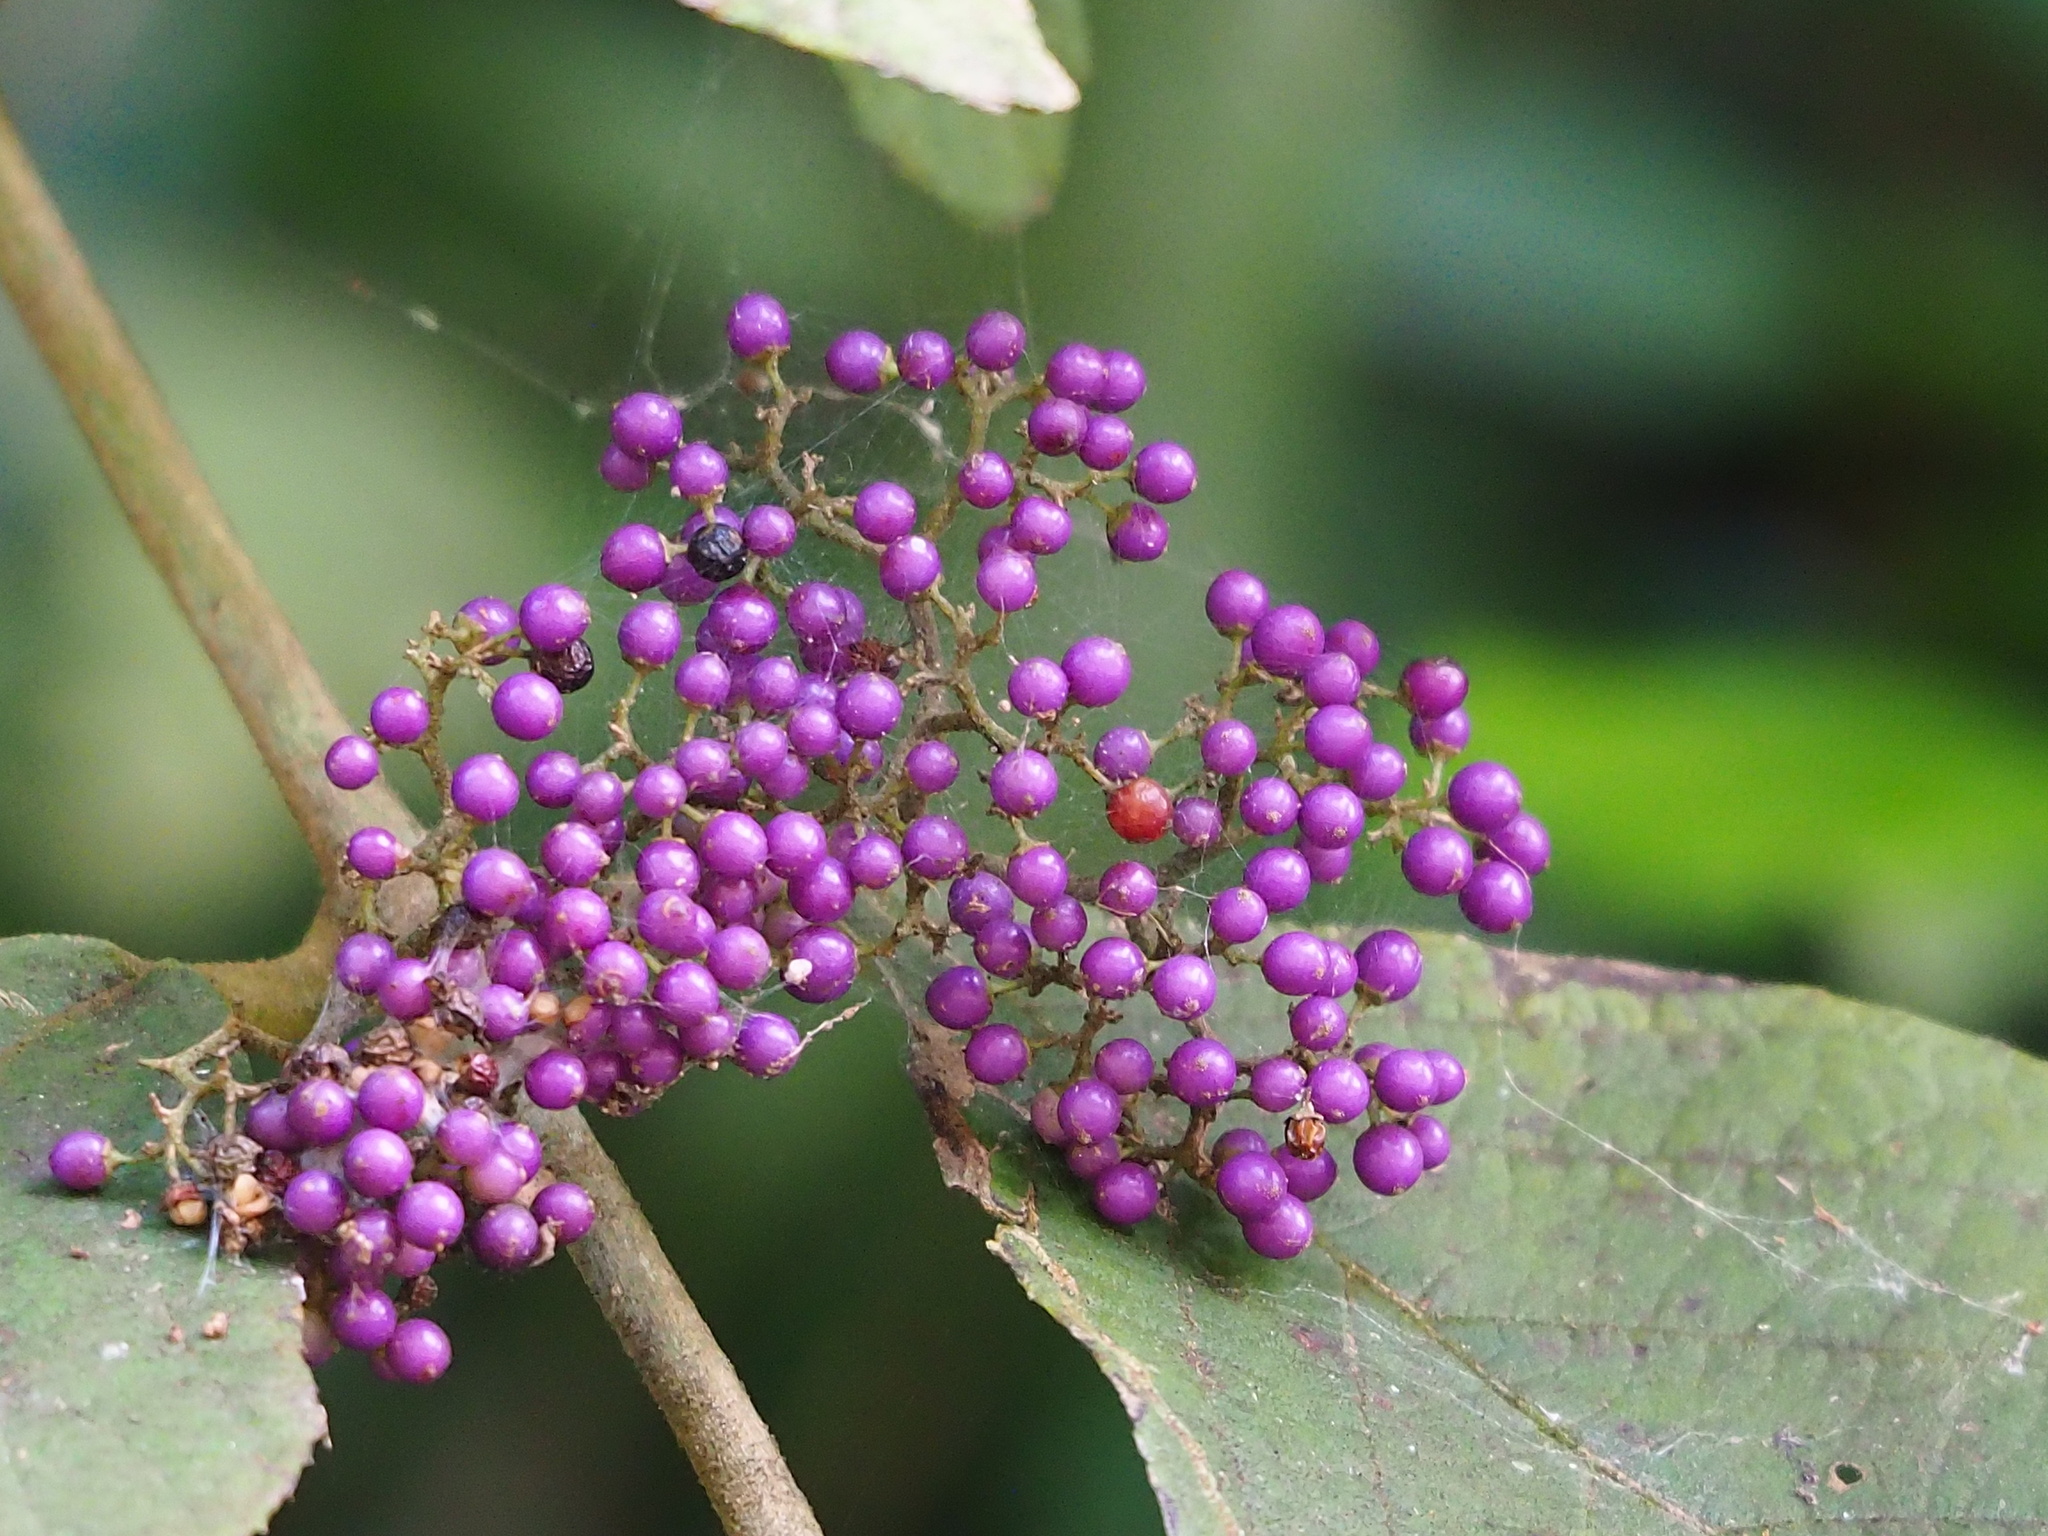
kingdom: Plantae
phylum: Tracheophyta
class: Magnoliopsida
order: Lamiales
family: Lamiaceae
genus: Callicarpa
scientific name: Callicarpa pedunculata
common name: Velvetleaf
